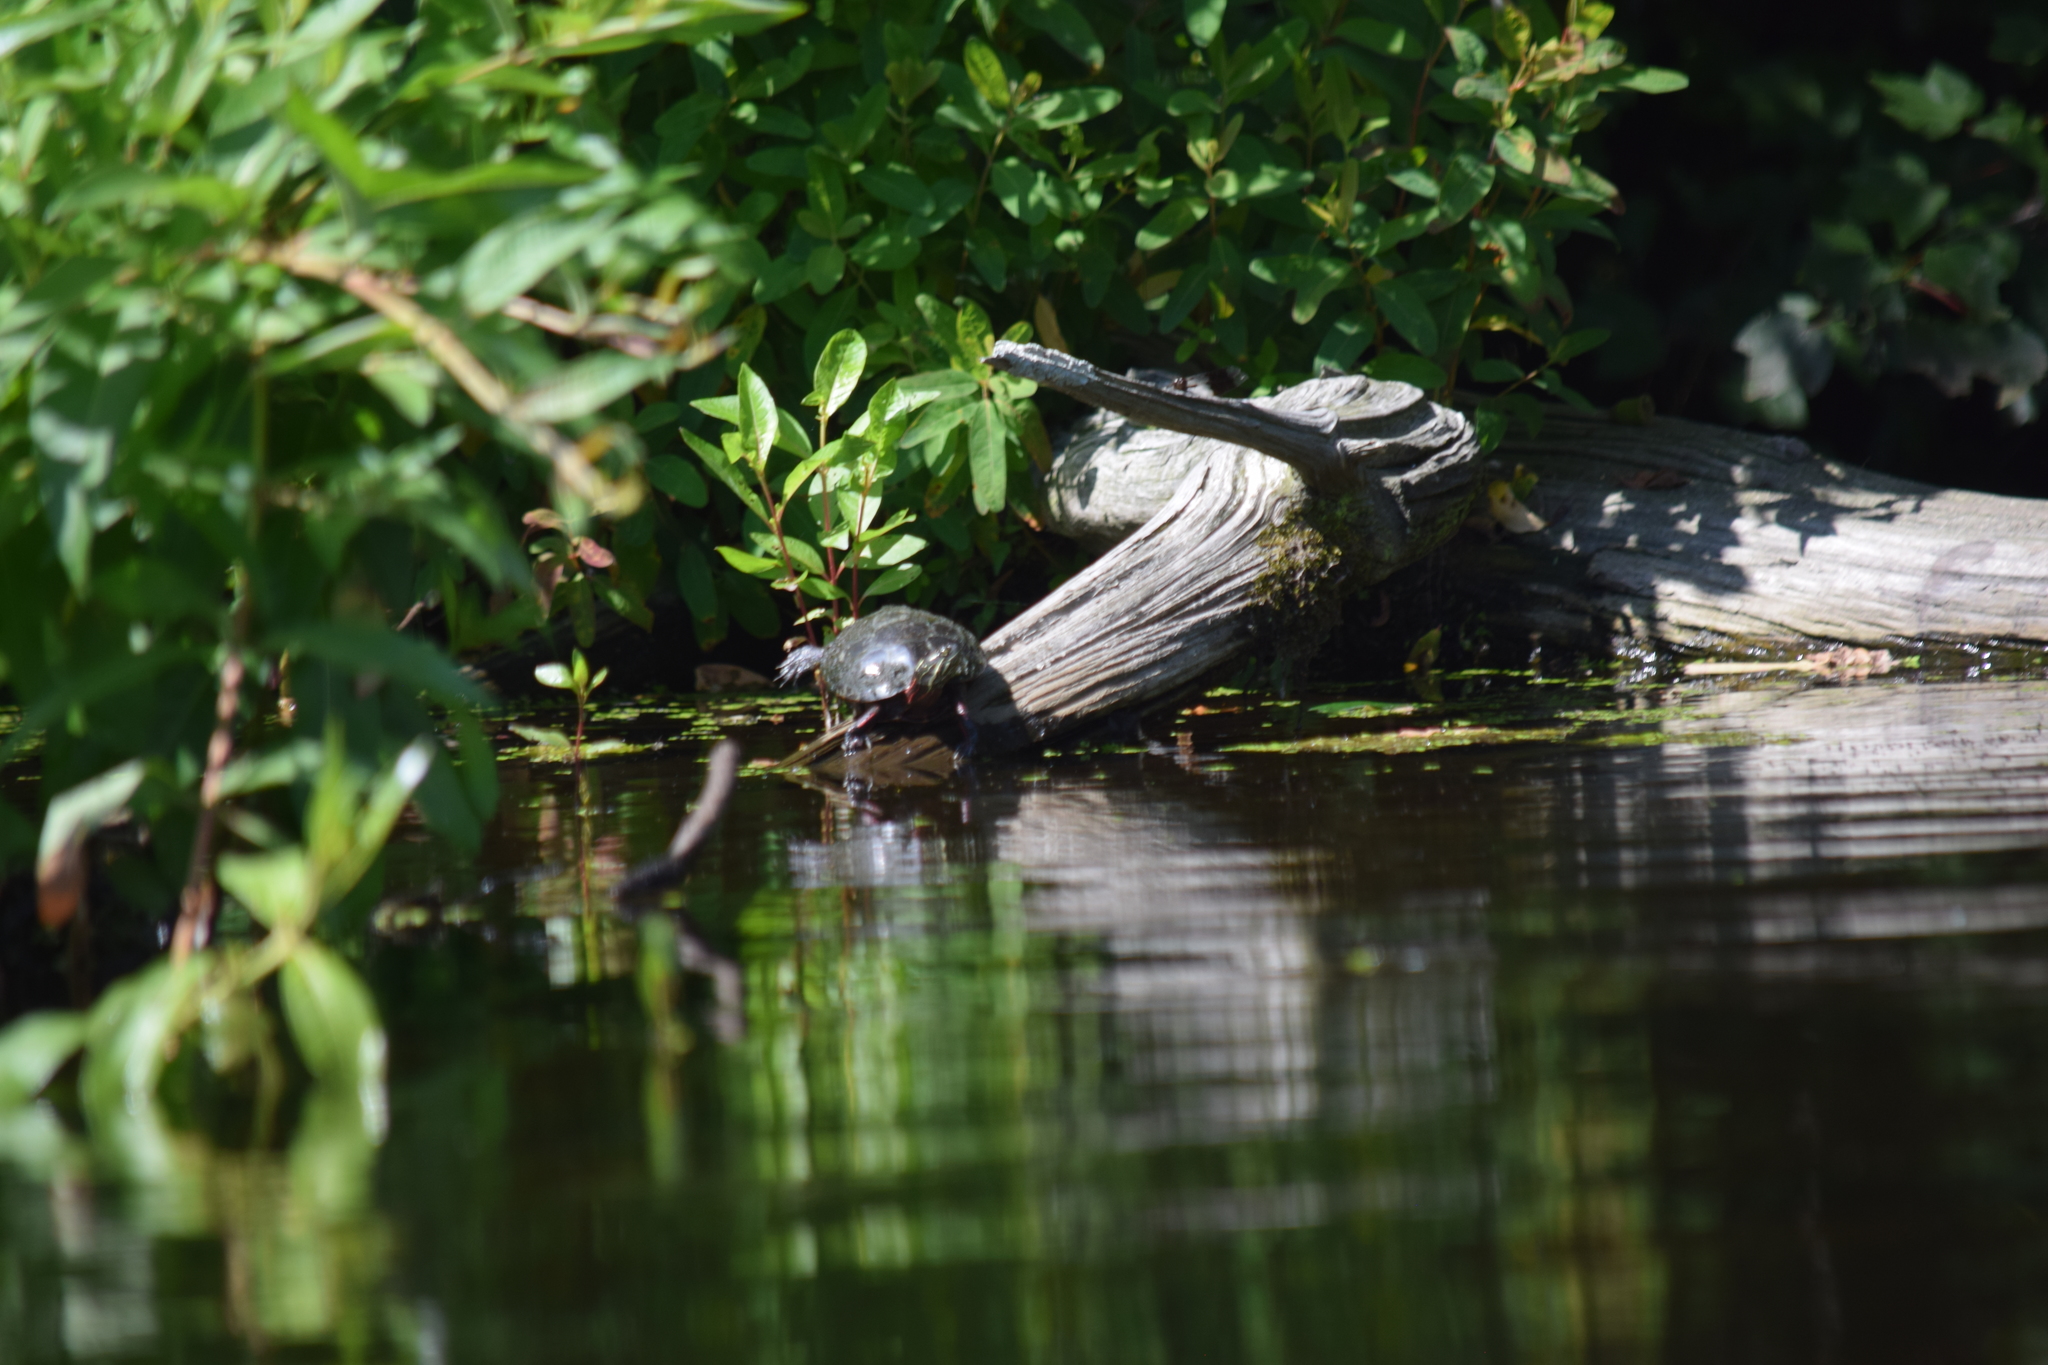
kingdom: Animalia
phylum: Chordata
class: Testudines
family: Emydidae
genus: Chrysemys
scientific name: Chrysemys picta
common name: Painted turtle
